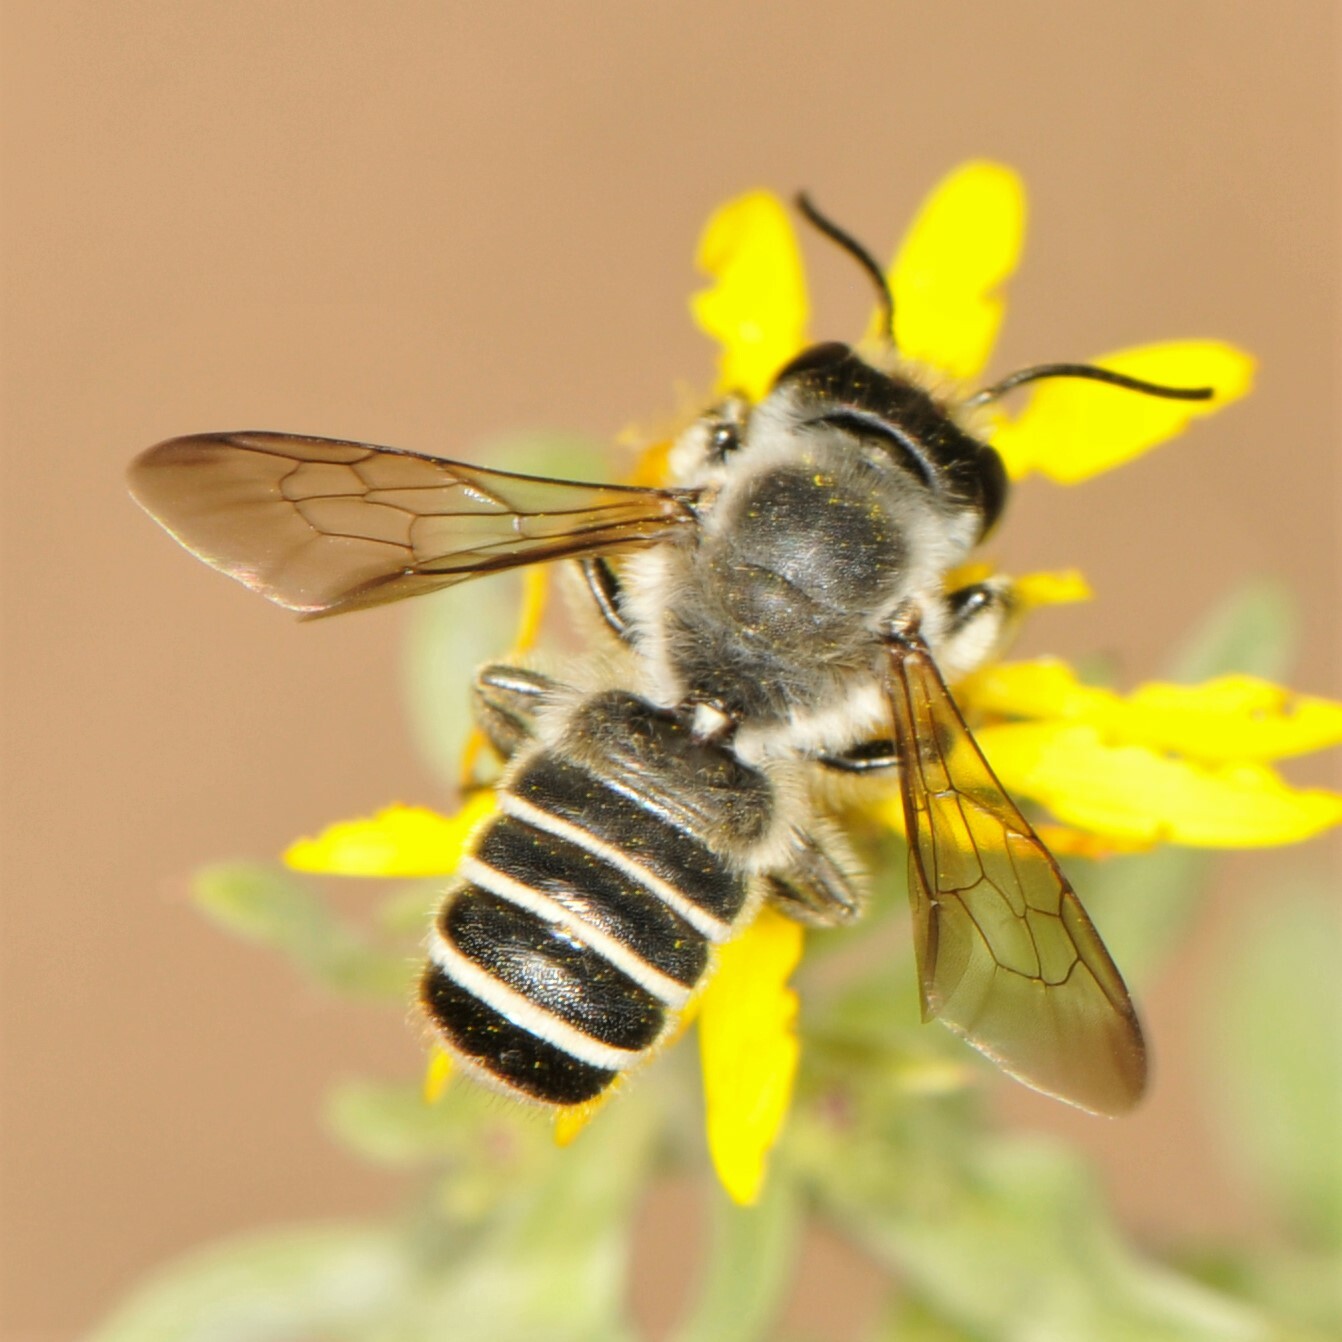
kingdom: Animalia
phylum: Arthropoda
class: Insecta
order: Hymenoptera
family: Megachilidae
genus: Megachile
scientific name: Megachile
